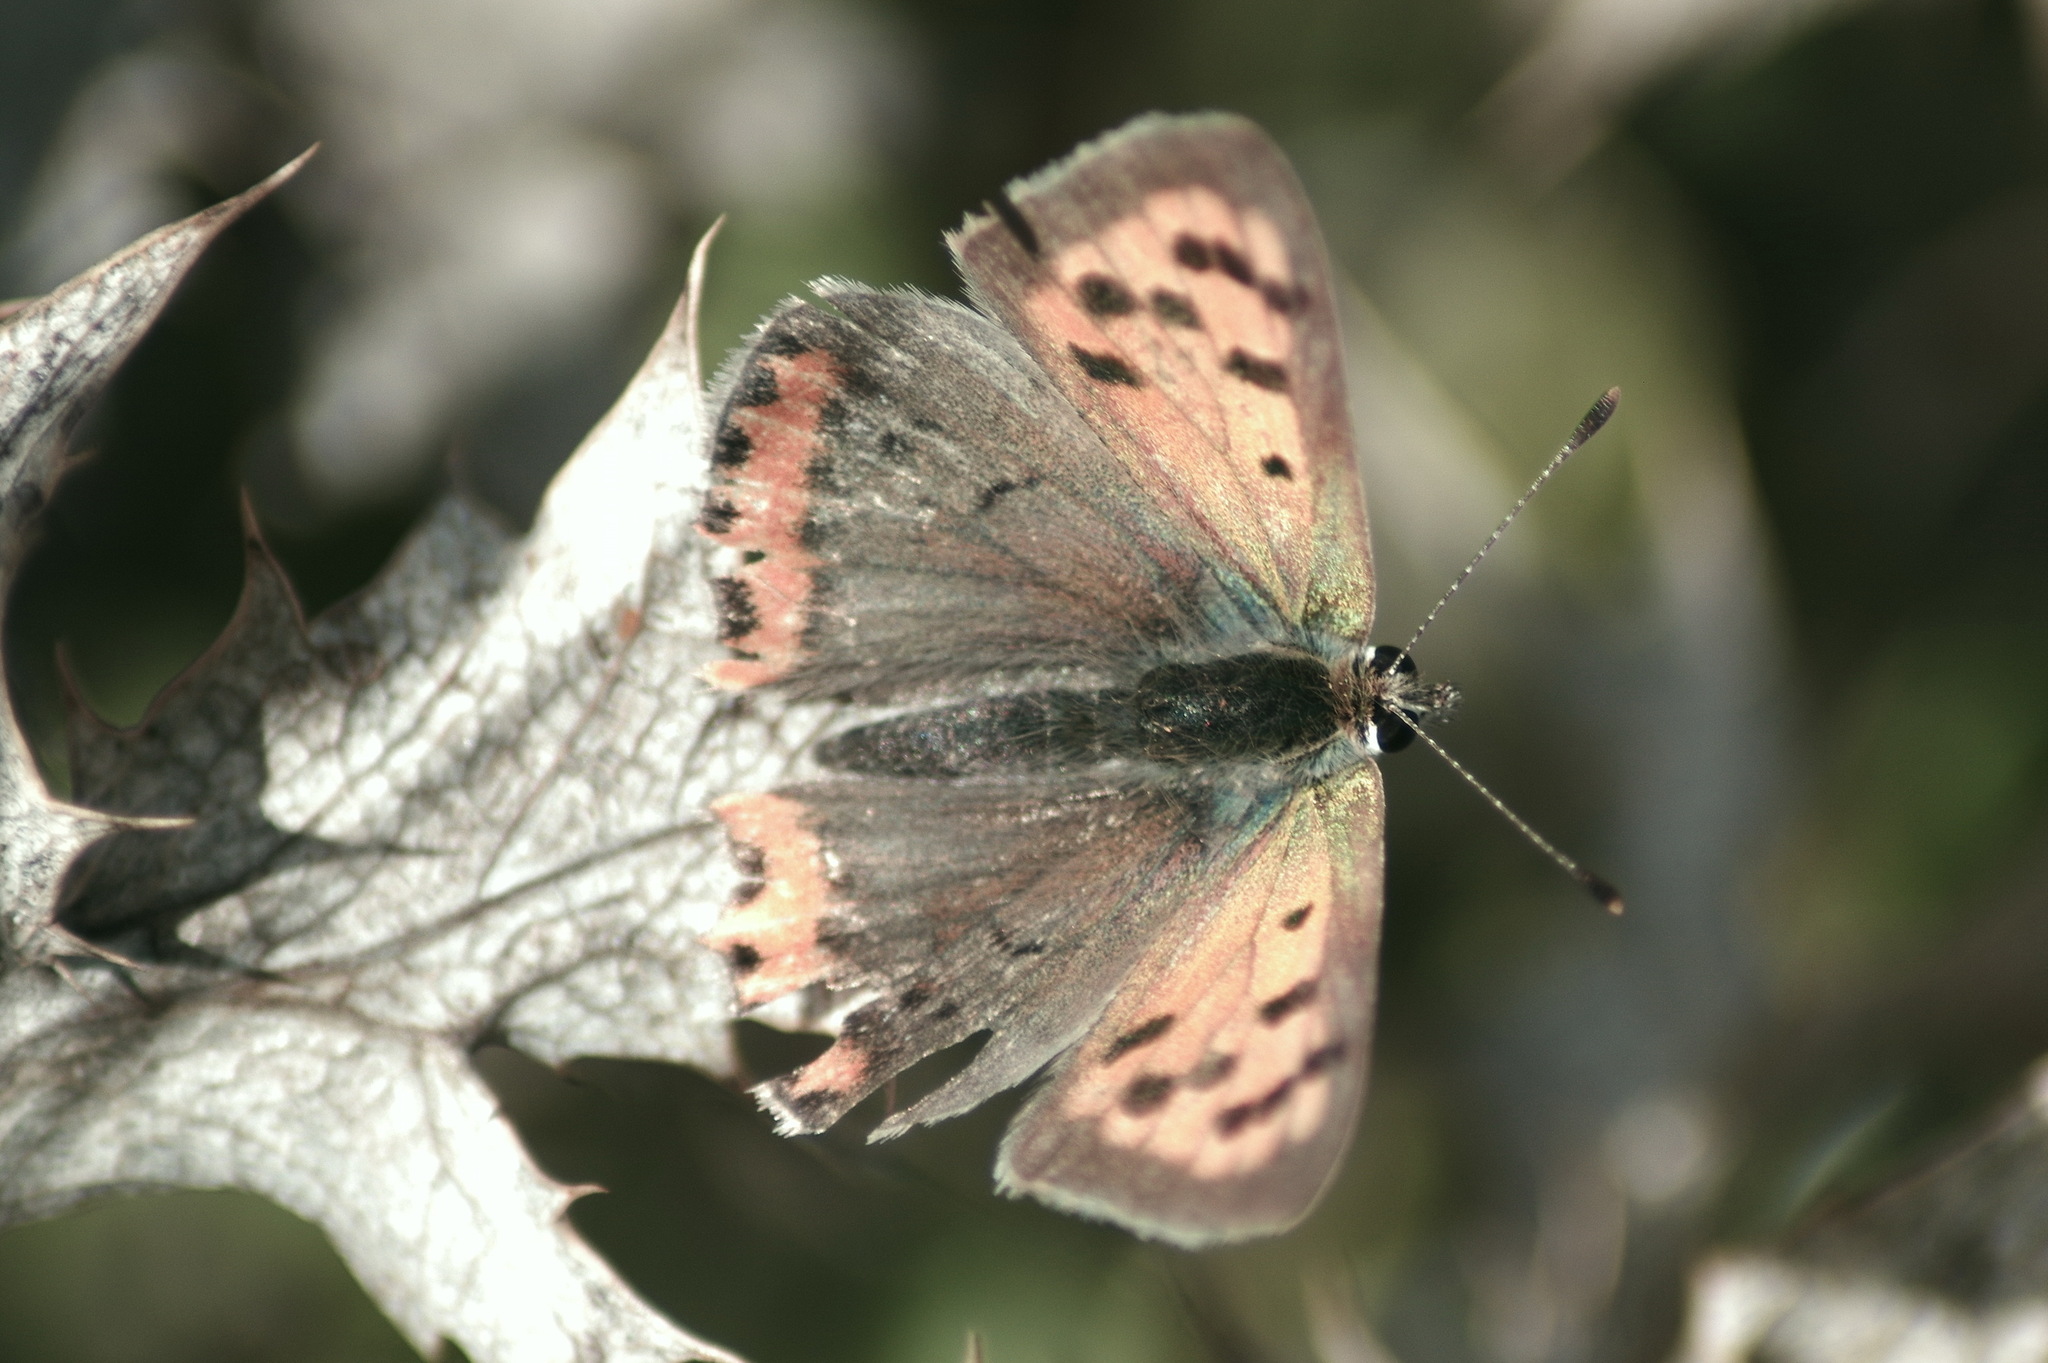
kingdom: Animalia
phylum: Arthropoda
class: Insecta
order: Lepidoptera
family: Lycaenidae
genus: Lycaena
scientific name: Lycaena phlaeas
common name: Small copper
